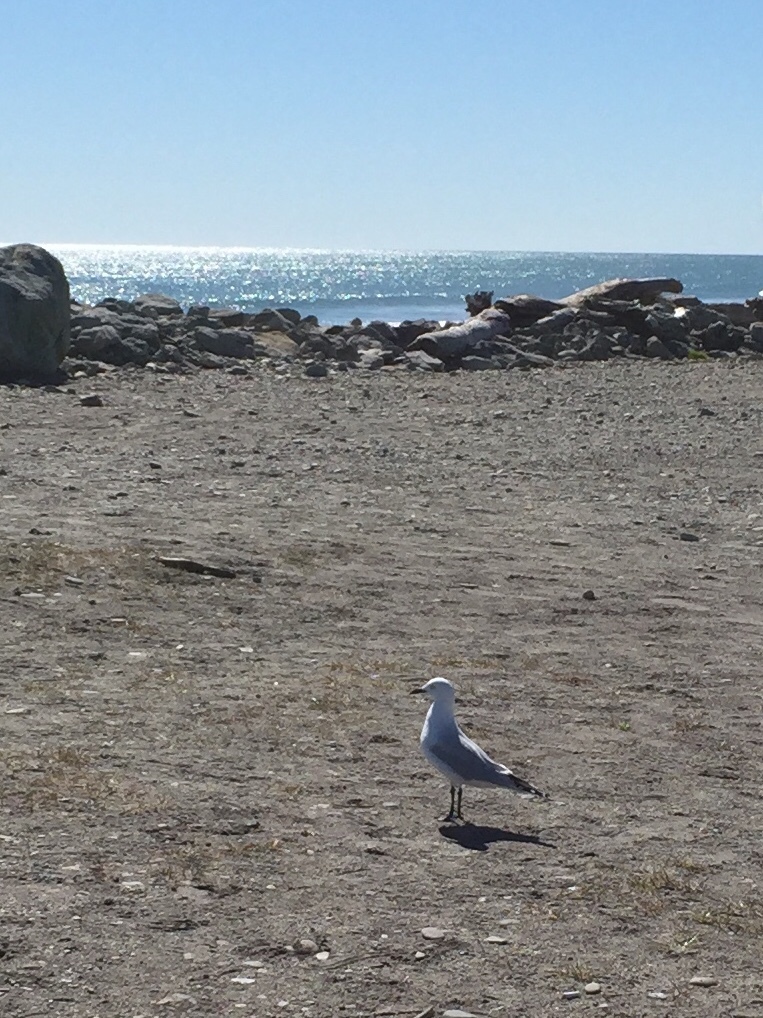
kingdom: Animalia
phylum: Chordata
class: Aves
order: Charadriiformes
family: Laridae
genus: Chroicocephalus
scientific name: Chroicocephalus bulleri
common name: Black-billed gull
